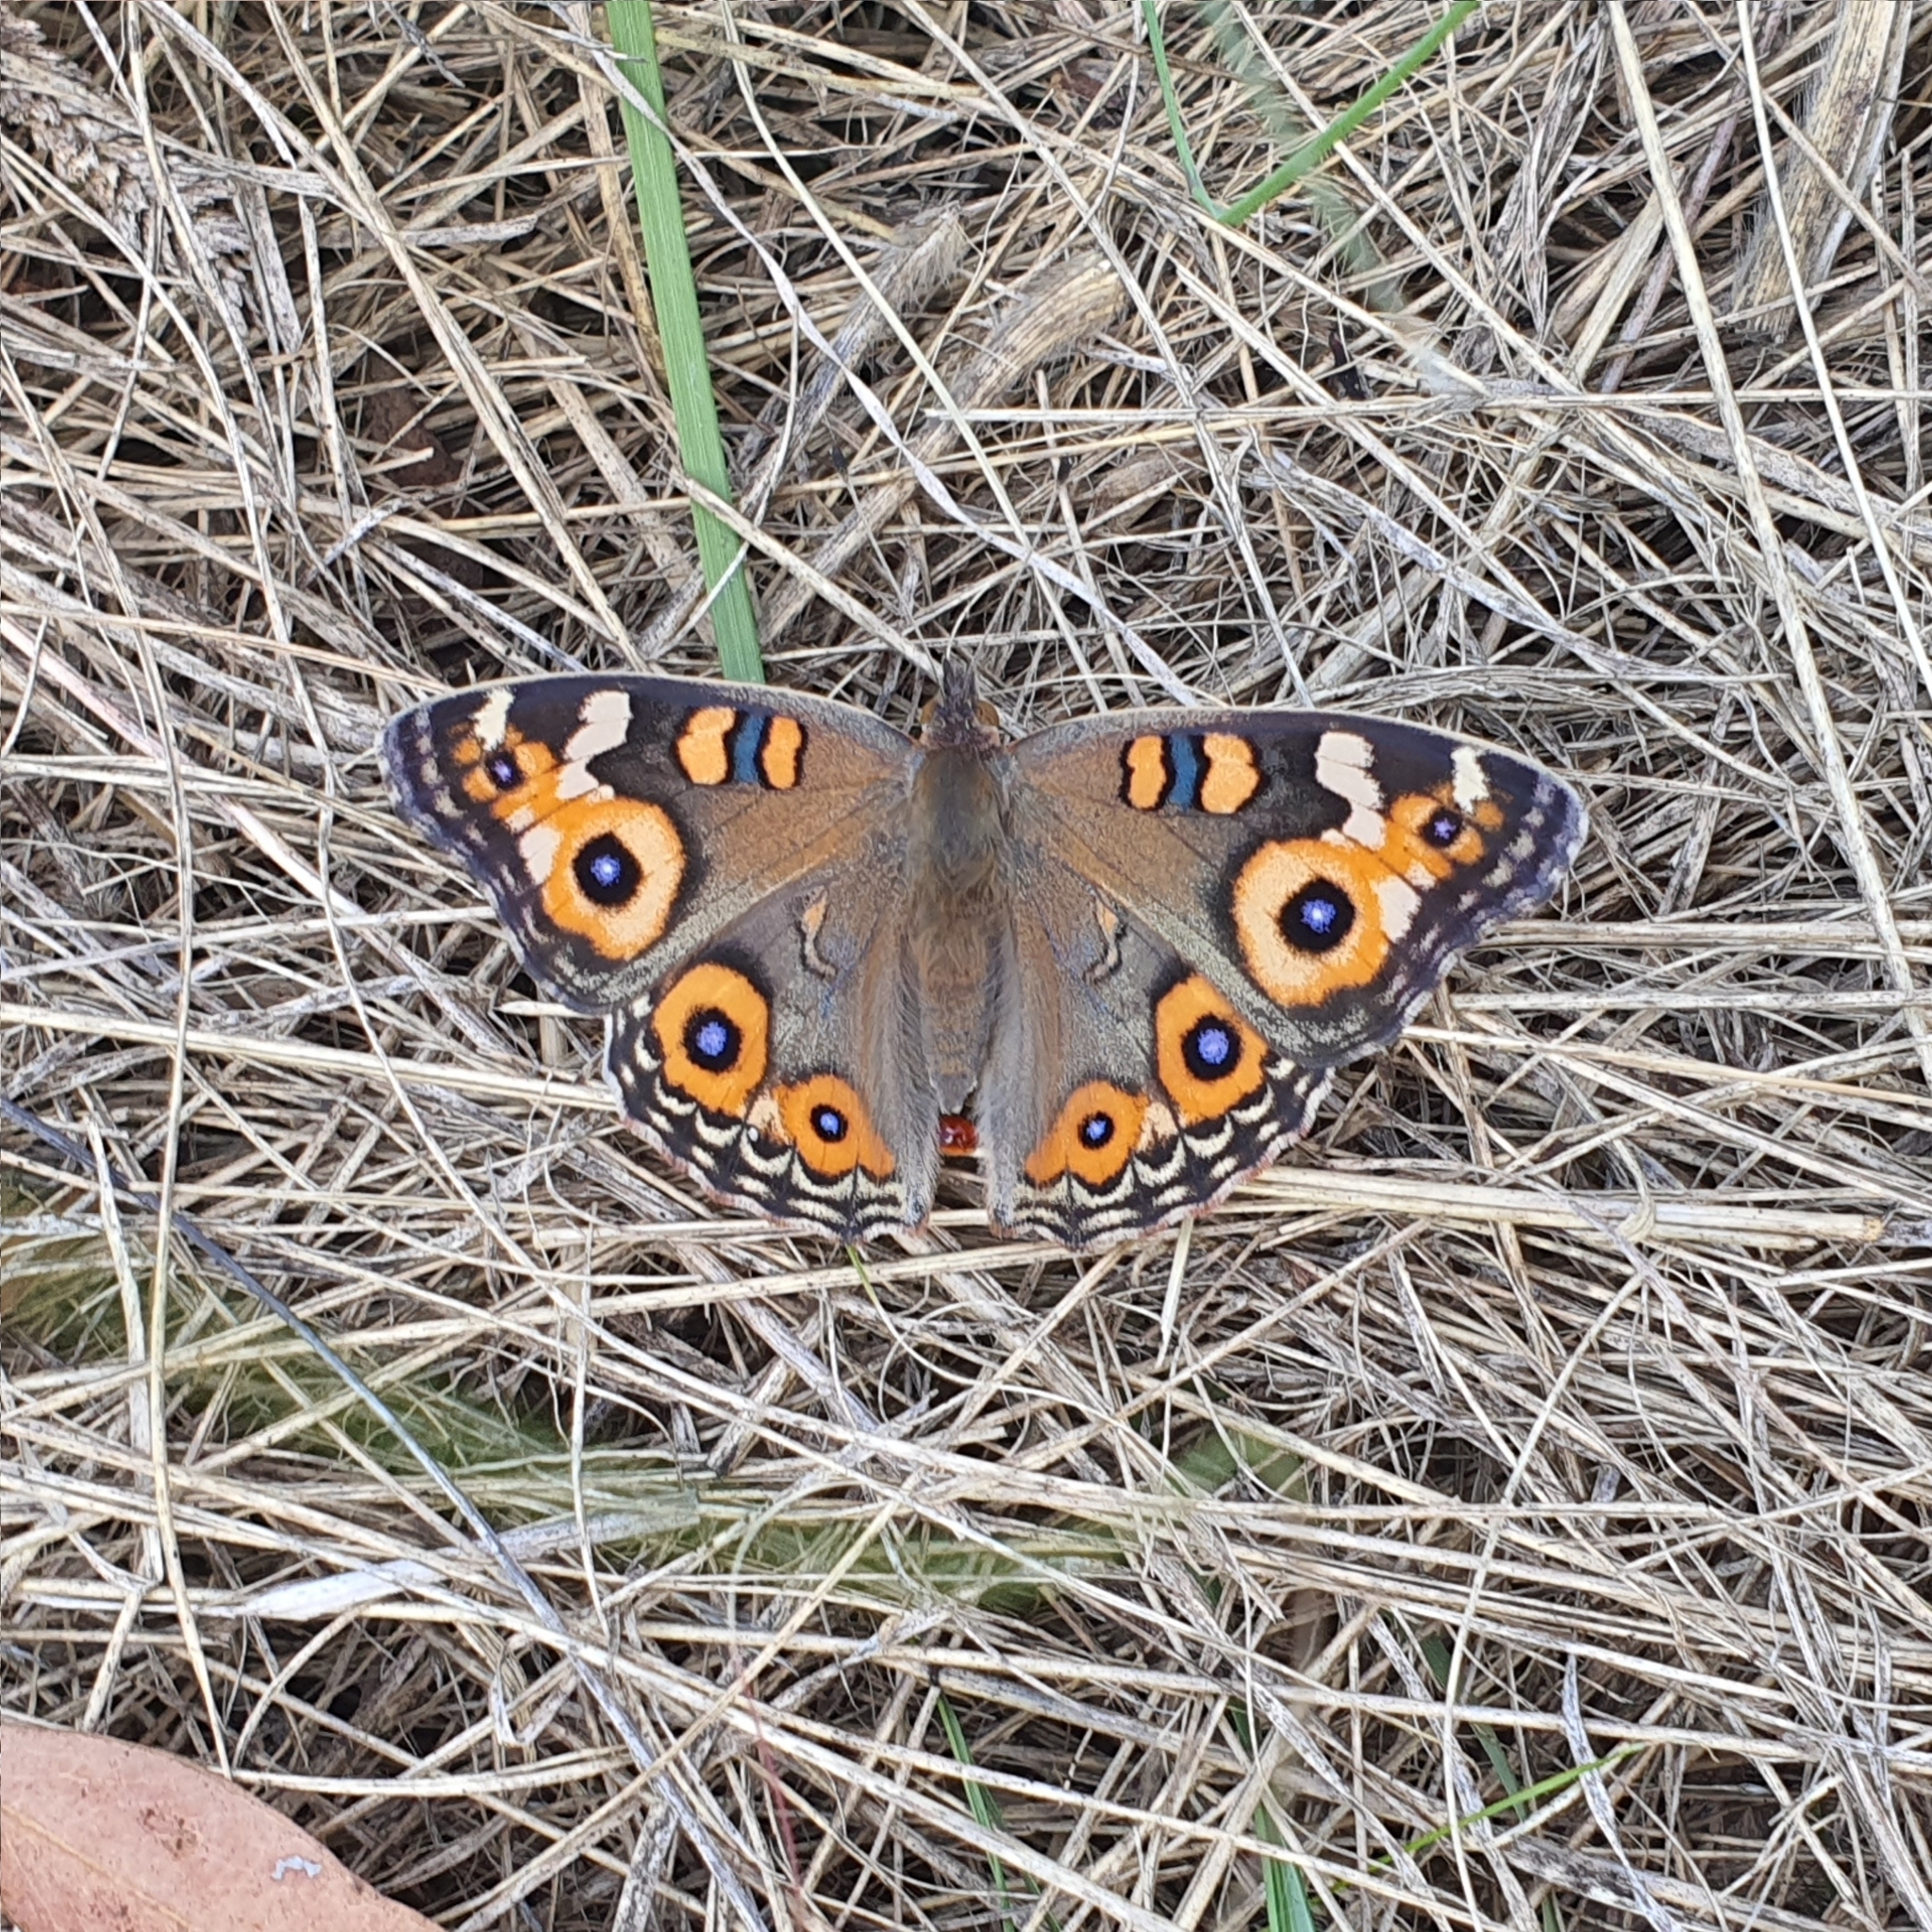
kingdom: Animalia
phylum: Arthropoda
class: Insecta
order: Lepidoptera
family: Nymphalidae
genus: Junonia
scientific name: Junonia villida
